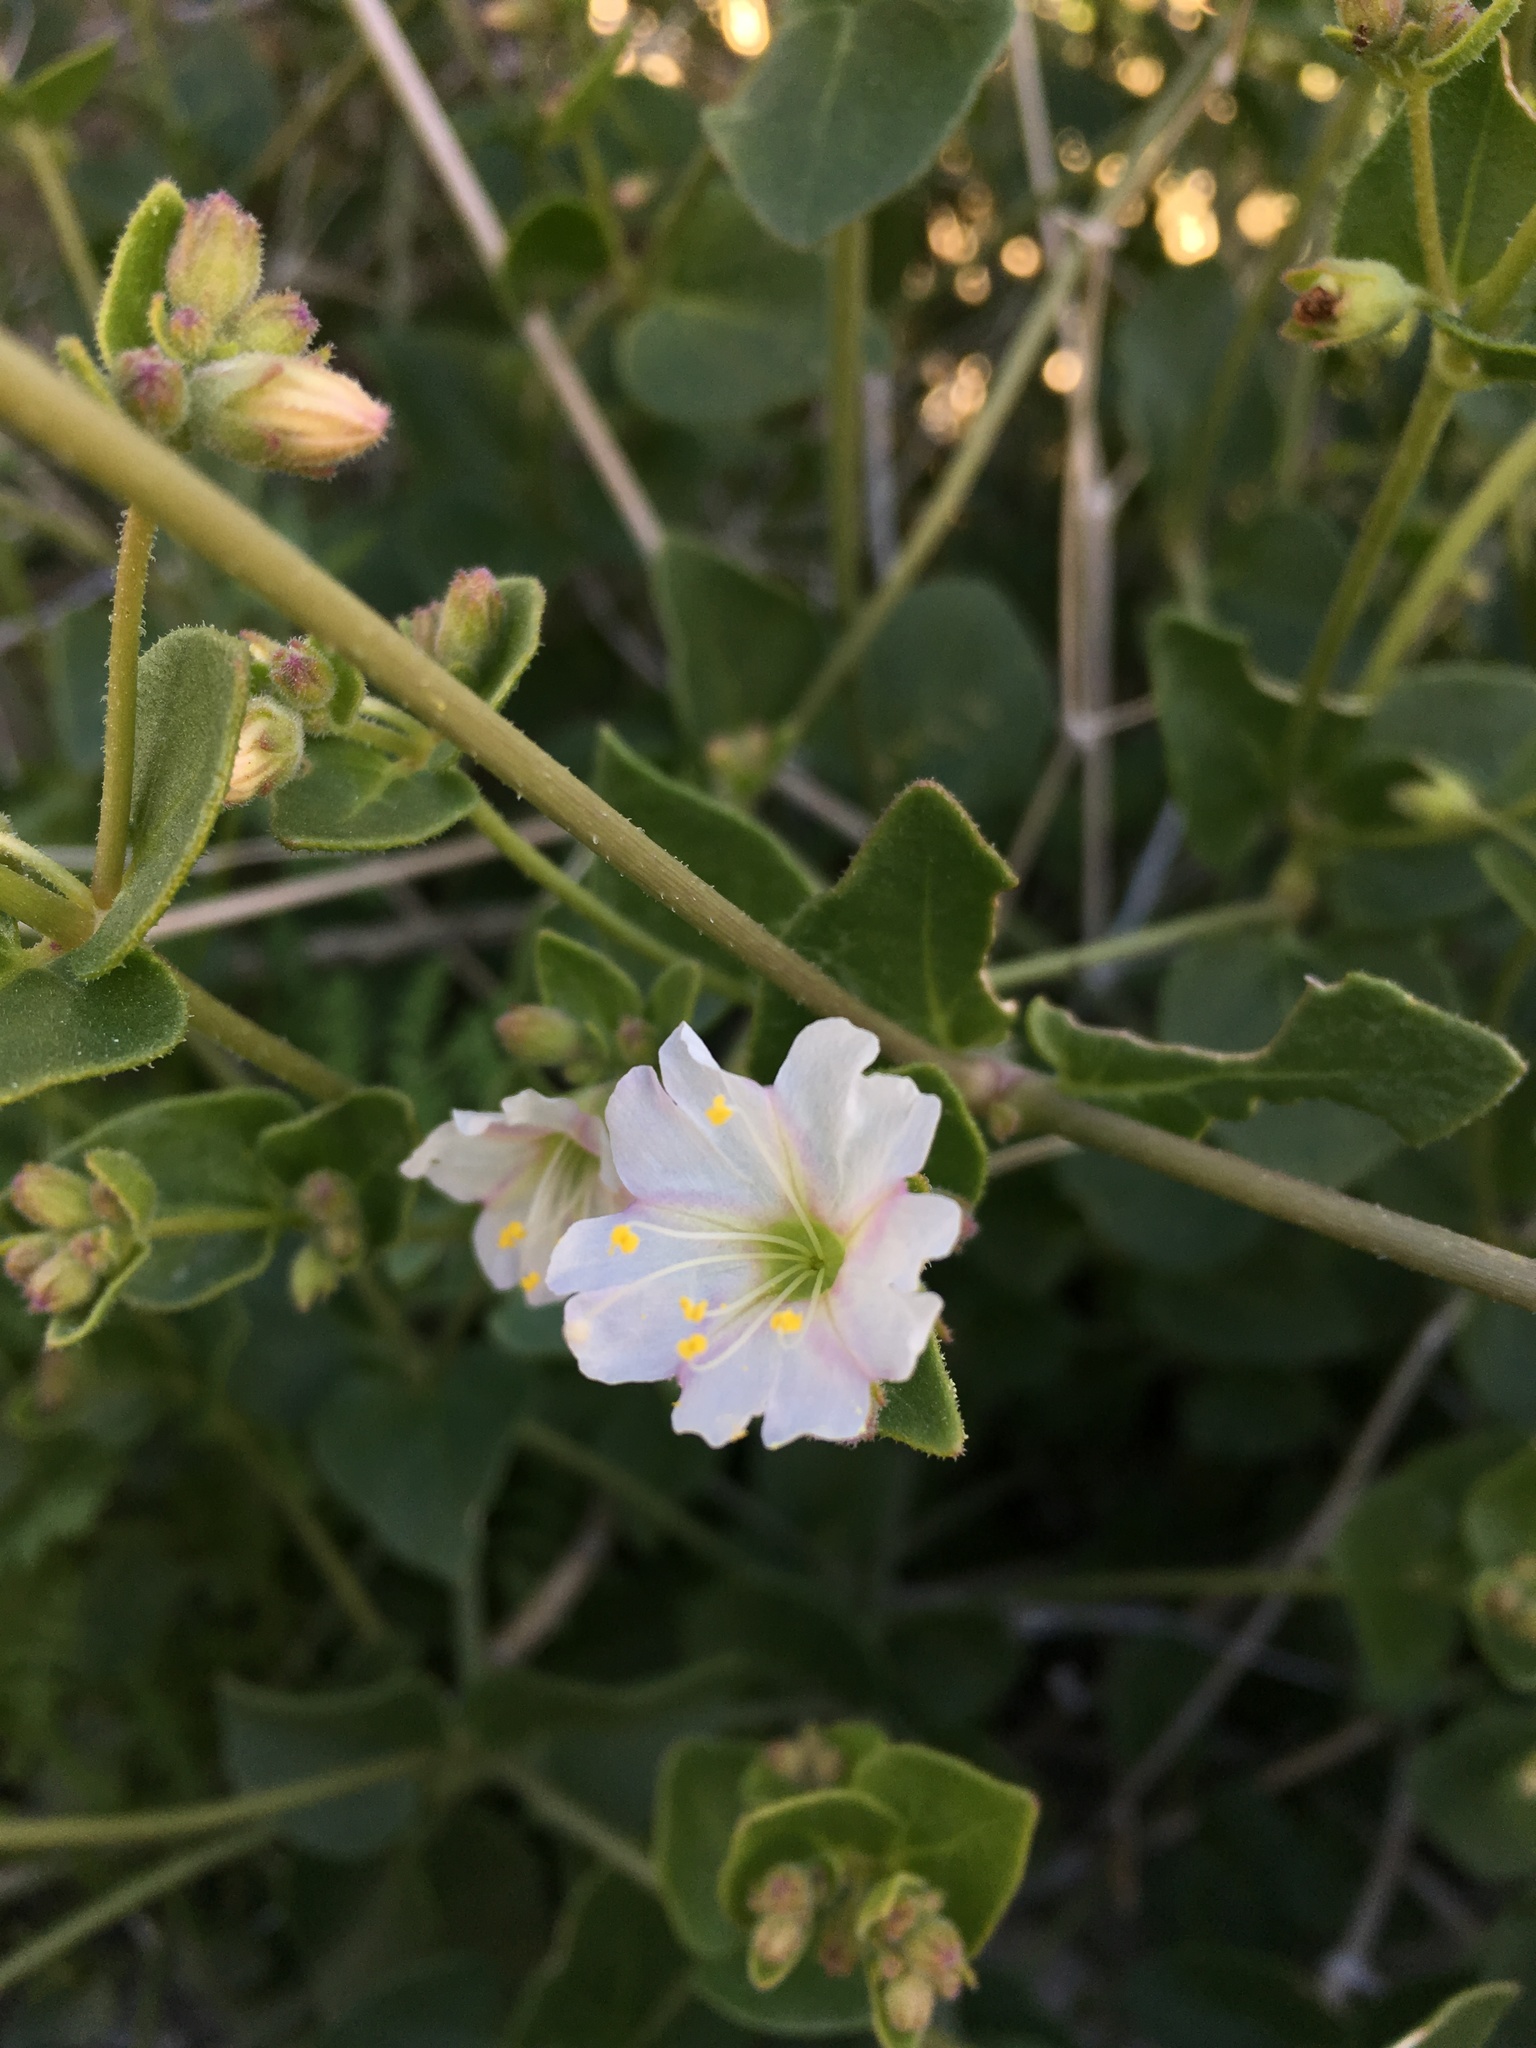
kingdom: Plantae
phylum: Tracheophyta
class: Magnoliopsida
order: Caryophyllales
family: Nyctaginaceae
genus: Mirabilis
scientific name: Mirabilis laevis
